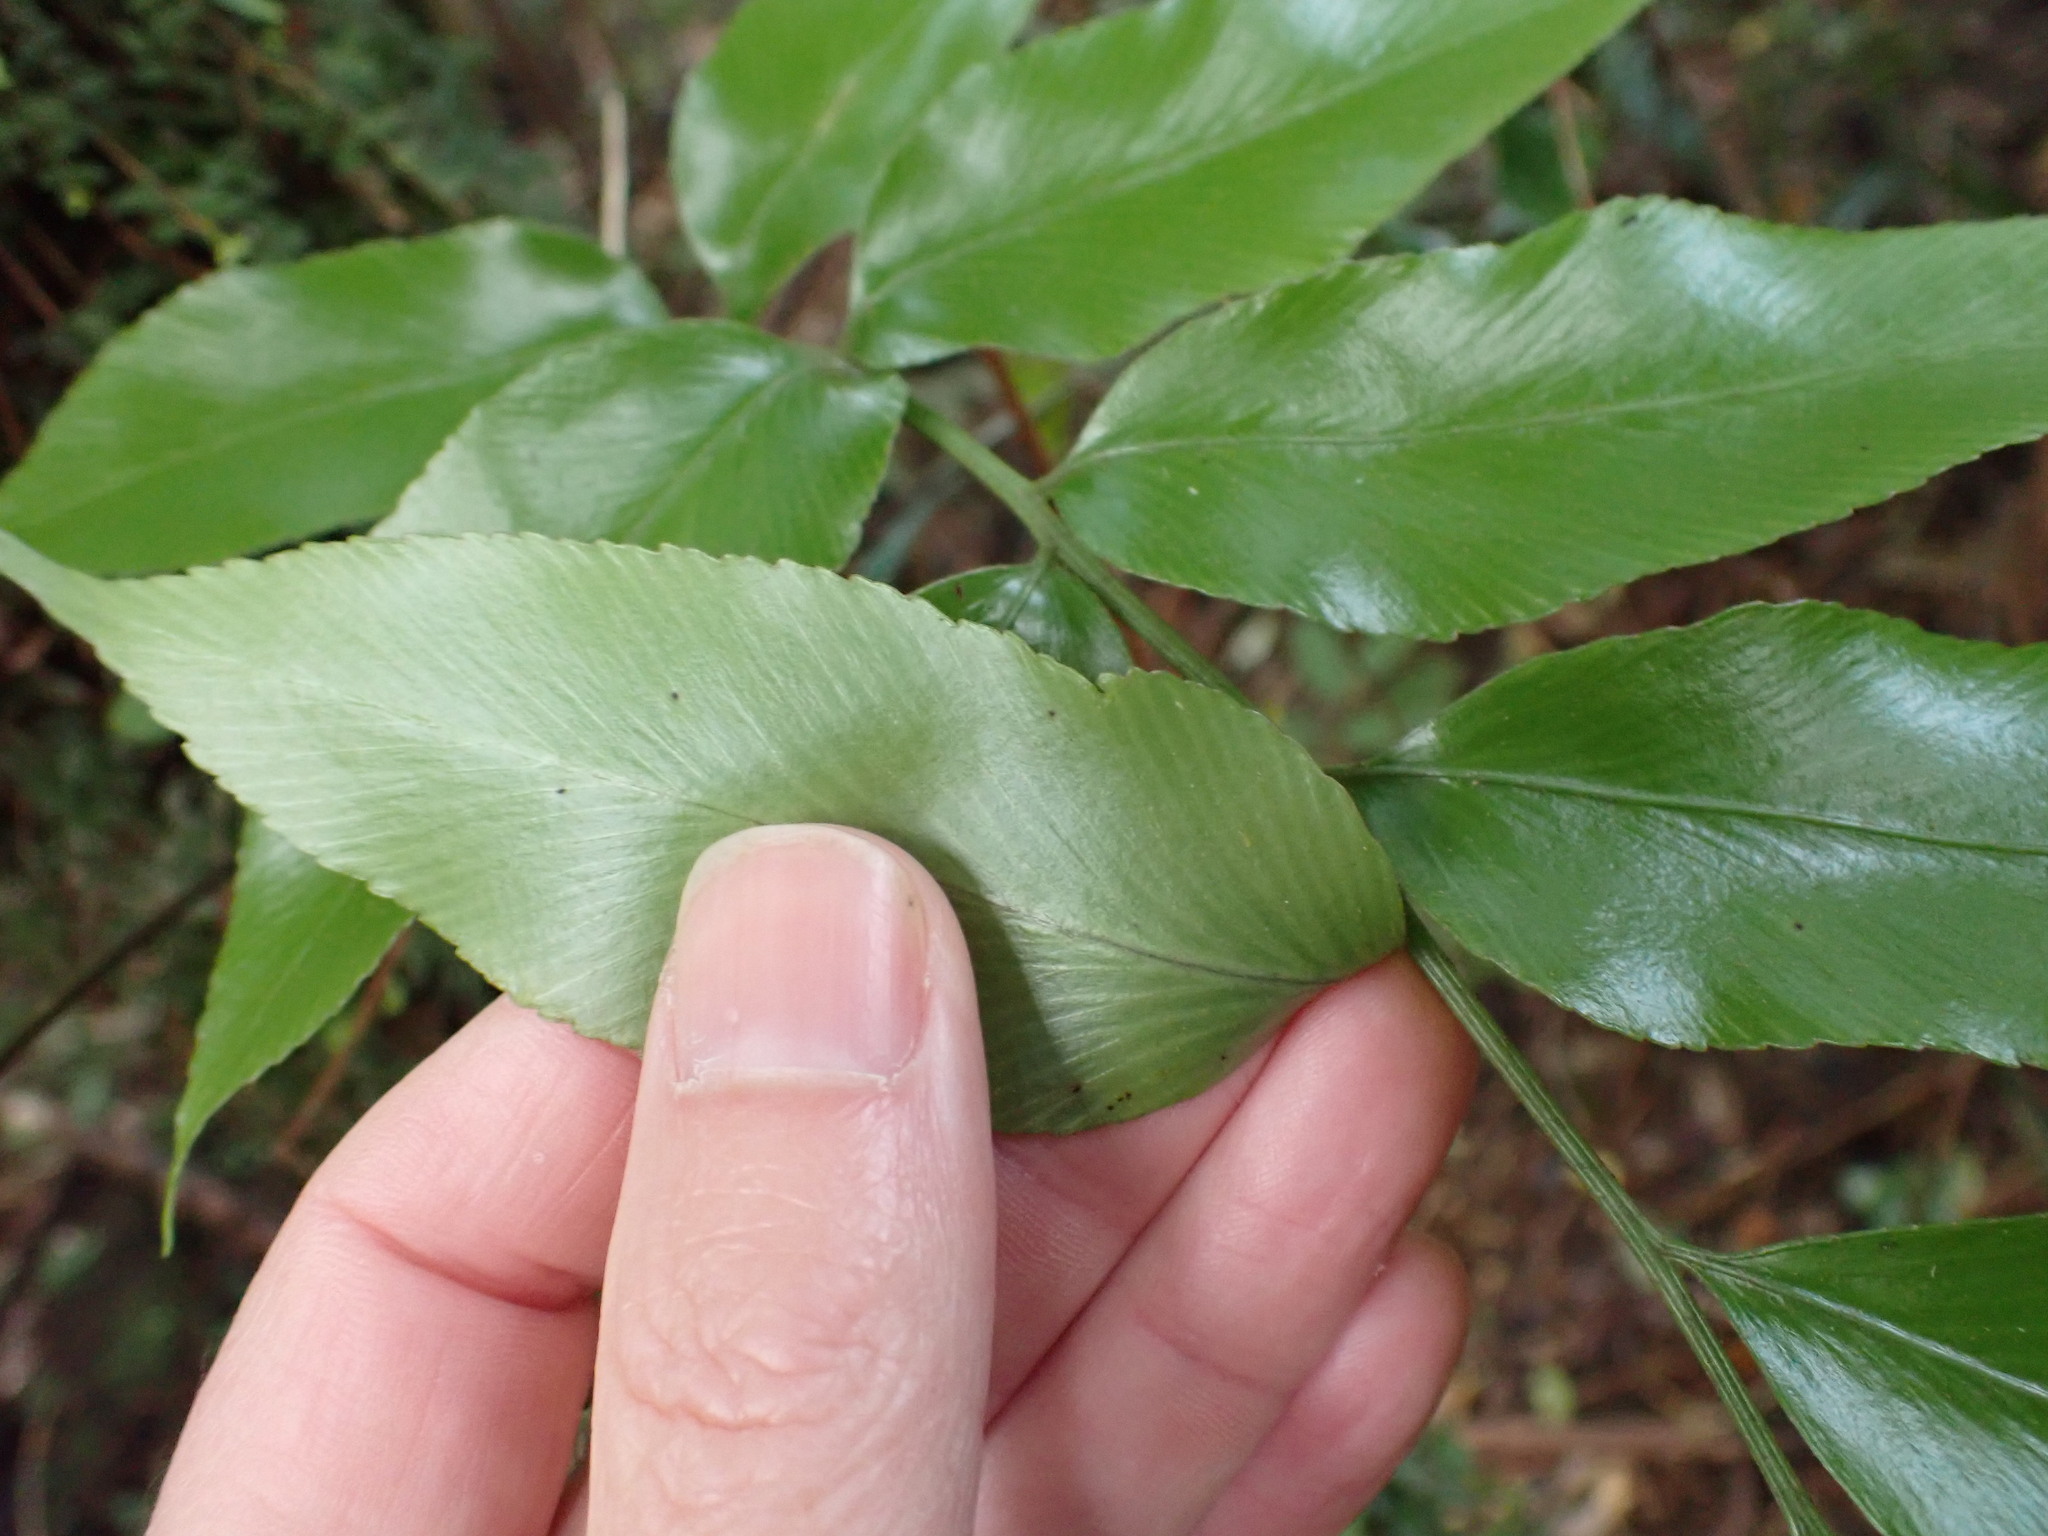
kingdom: Plantae
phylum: Tracheophyta
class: Polypodiopsida
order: Polypodiales
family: Aspleniaceae
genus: Asplenium
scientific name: Asplenium oblongifolium
